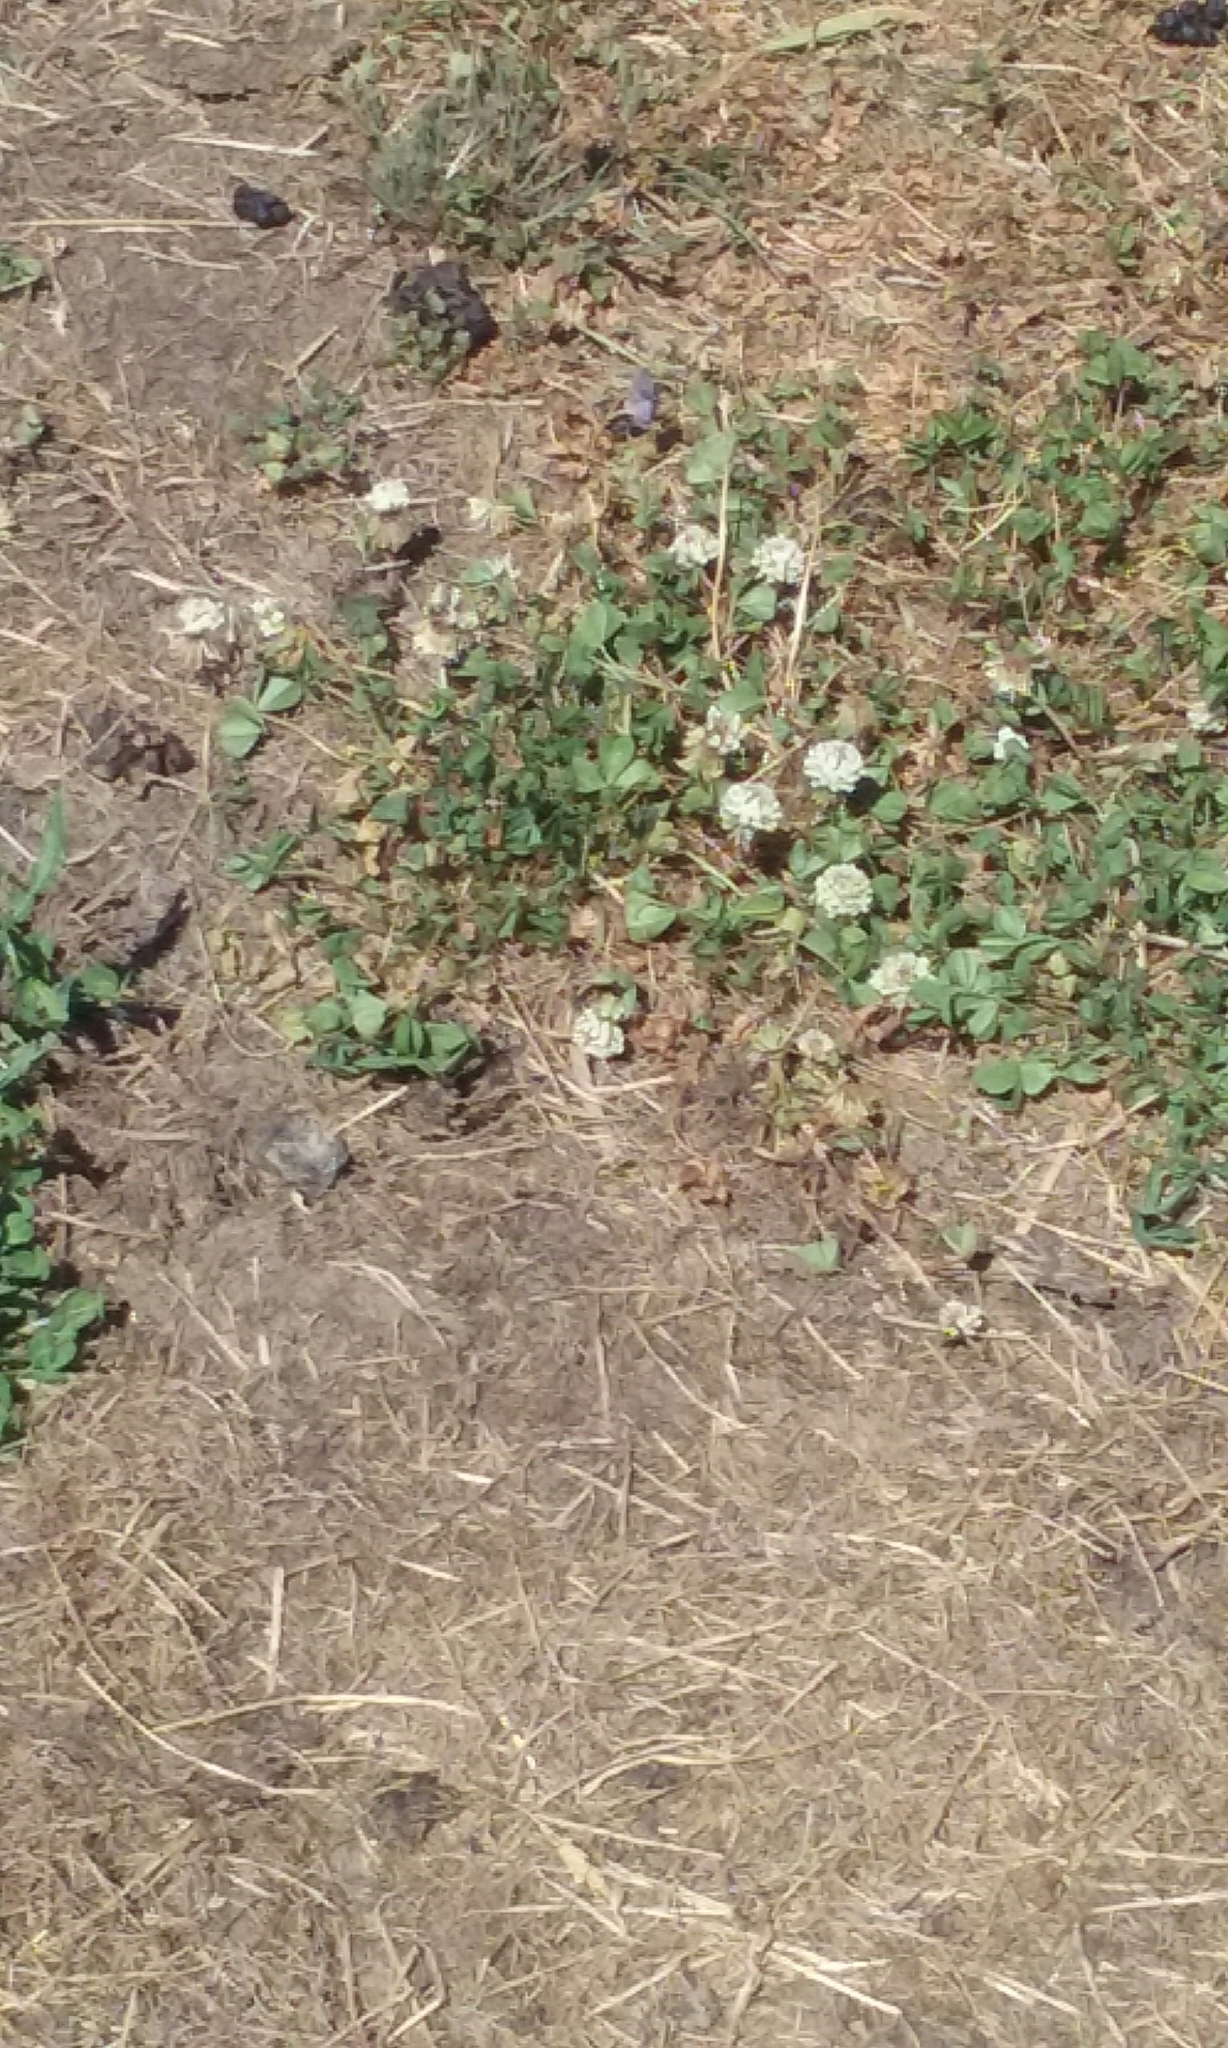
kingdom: Plantae
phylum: Tracheophyta
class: Magnoliopsida
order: Fabales
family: Fabaceae
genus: Trifolium
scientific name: Trifolium repens
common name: White clover
